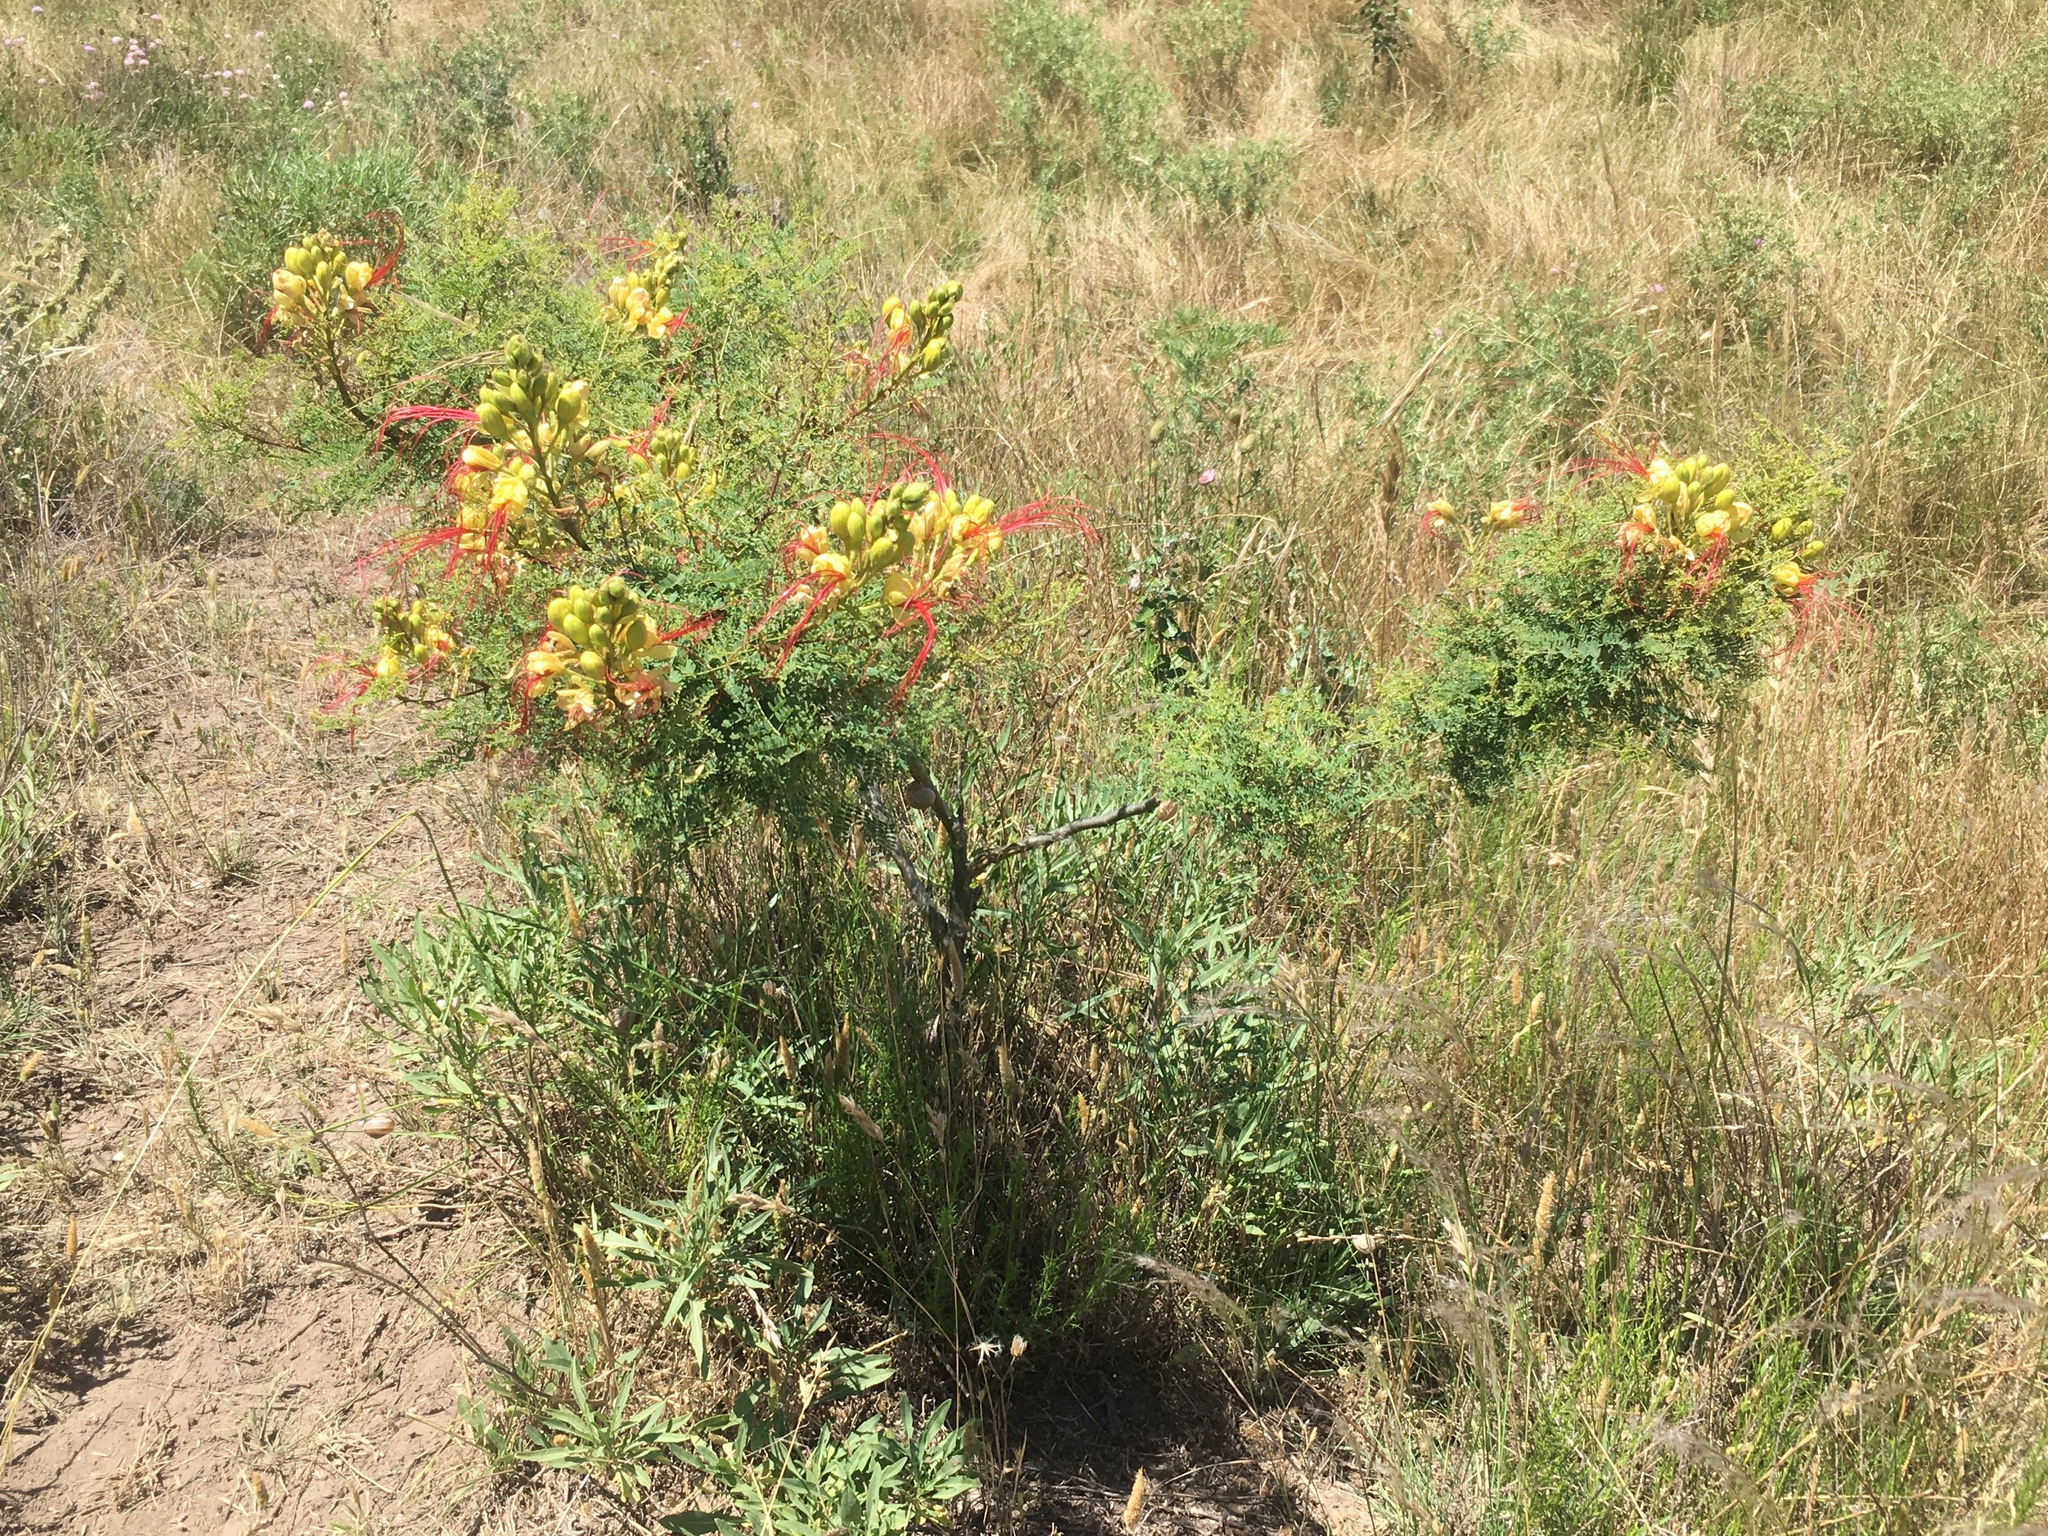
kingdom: Plantae
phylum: Tracheophyta
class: Magnoliopsida
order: Fabales
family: Fabaceae
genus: Erythrostemon
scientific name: Erythrostemon gilliesii
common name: Bird-of-paradise shrub
